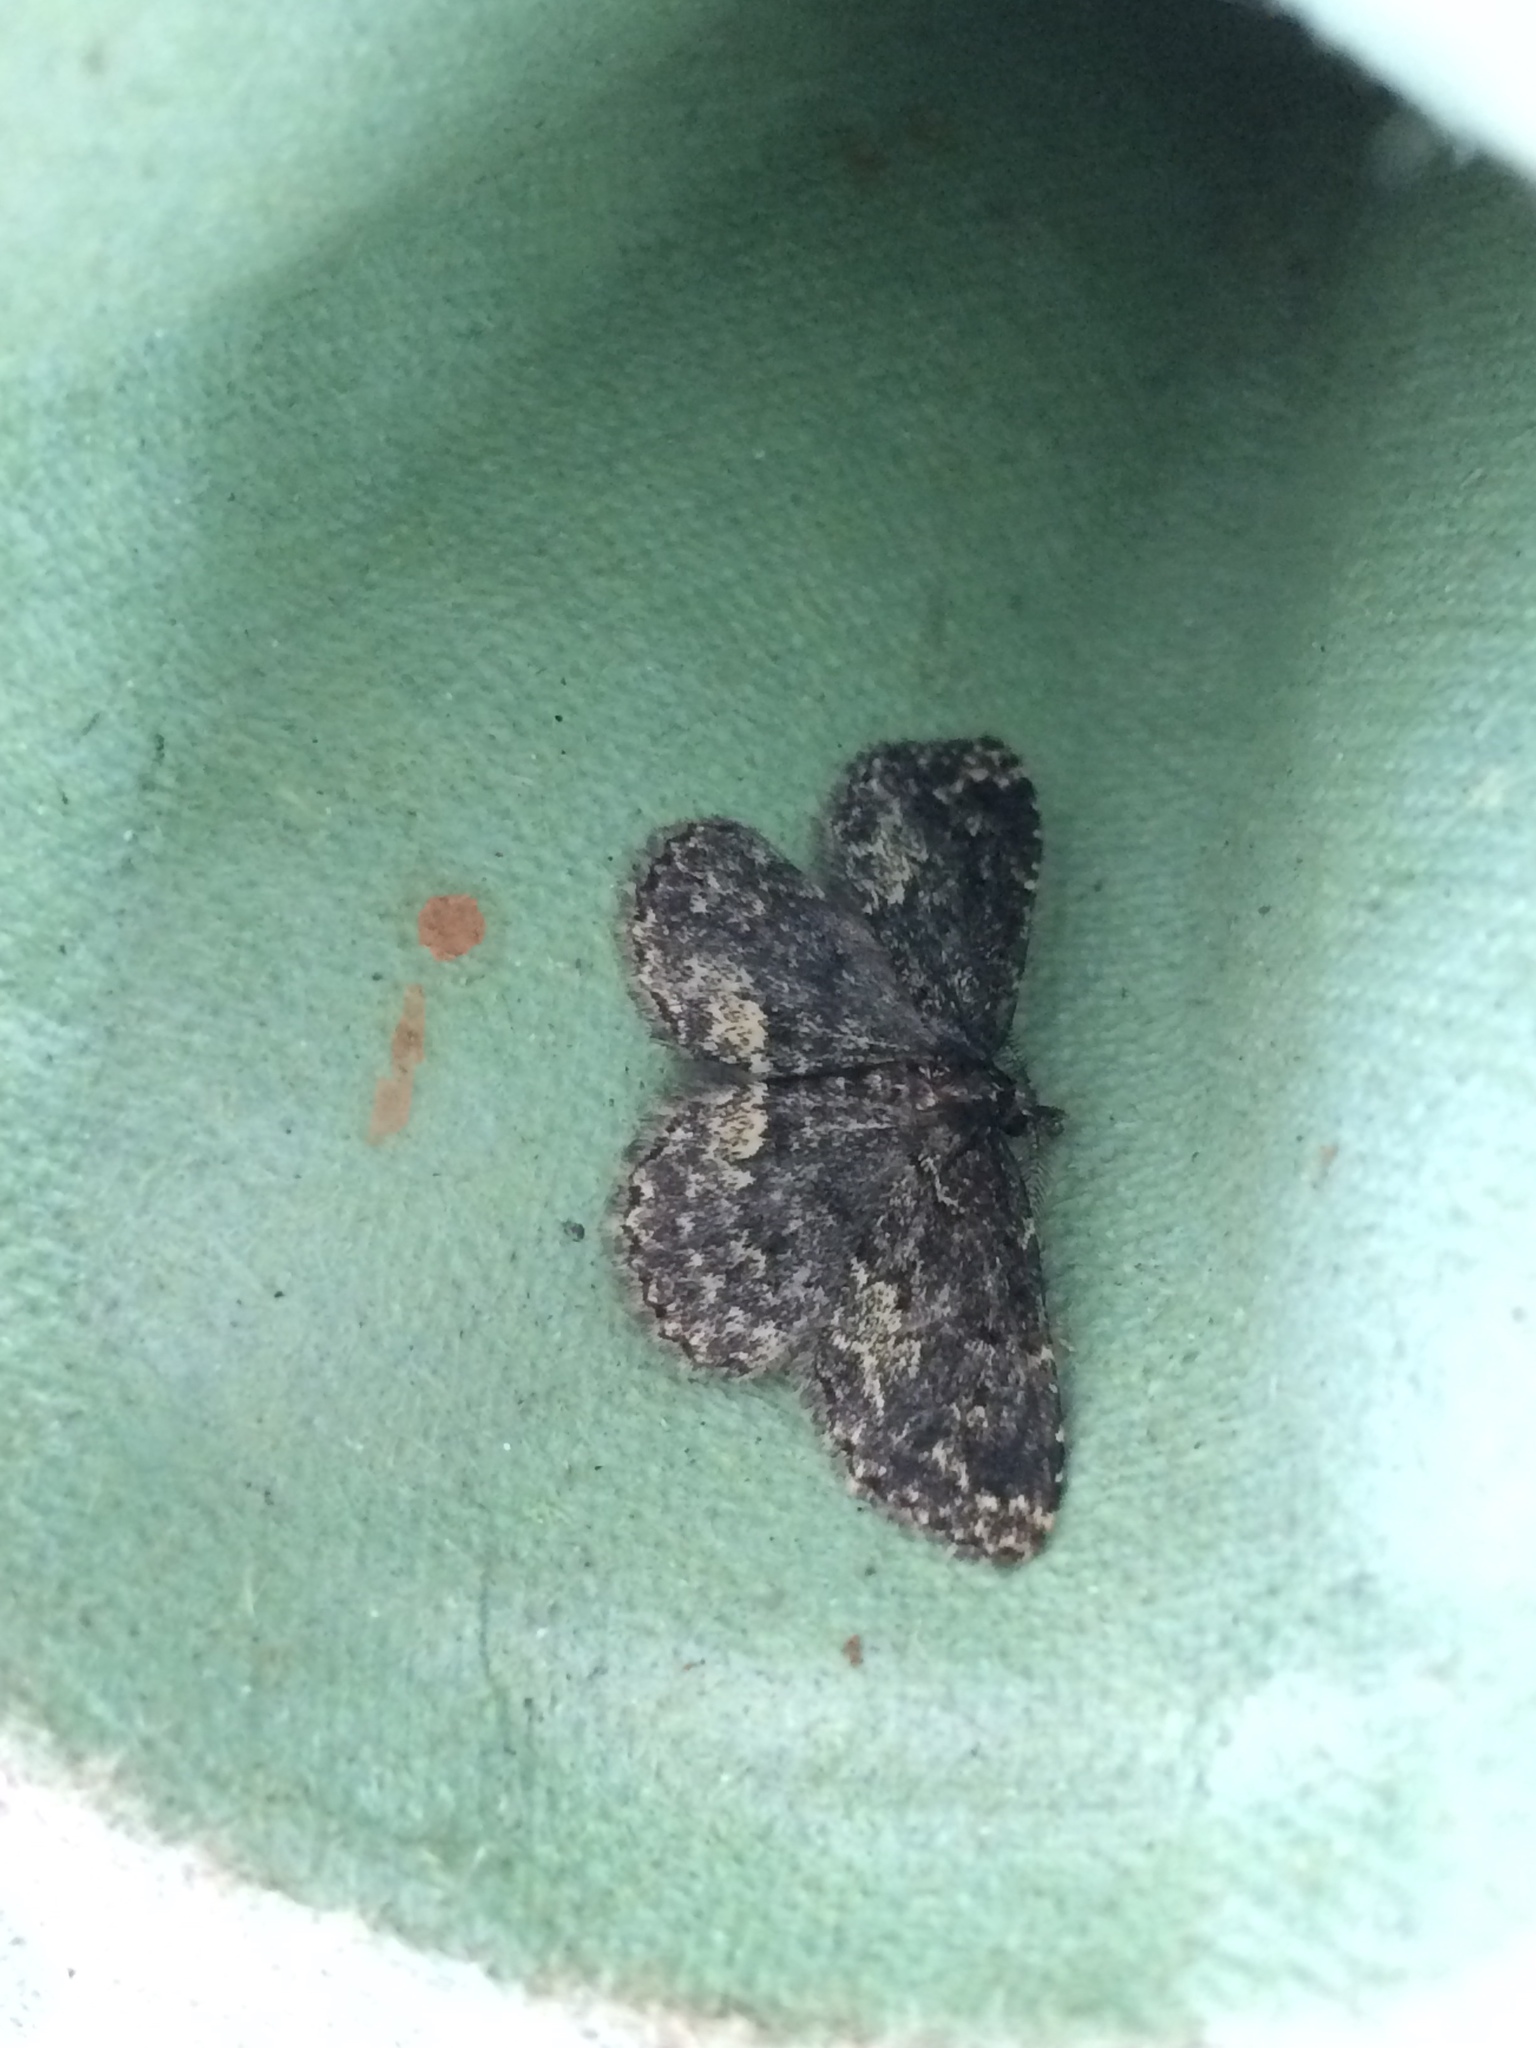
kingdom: Animalia
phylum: Arthropoda
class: Insecta
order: Lepidoptera
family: Erebidae
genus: Parascotia
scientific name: Parascotia fuliginaria
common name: Waved black
